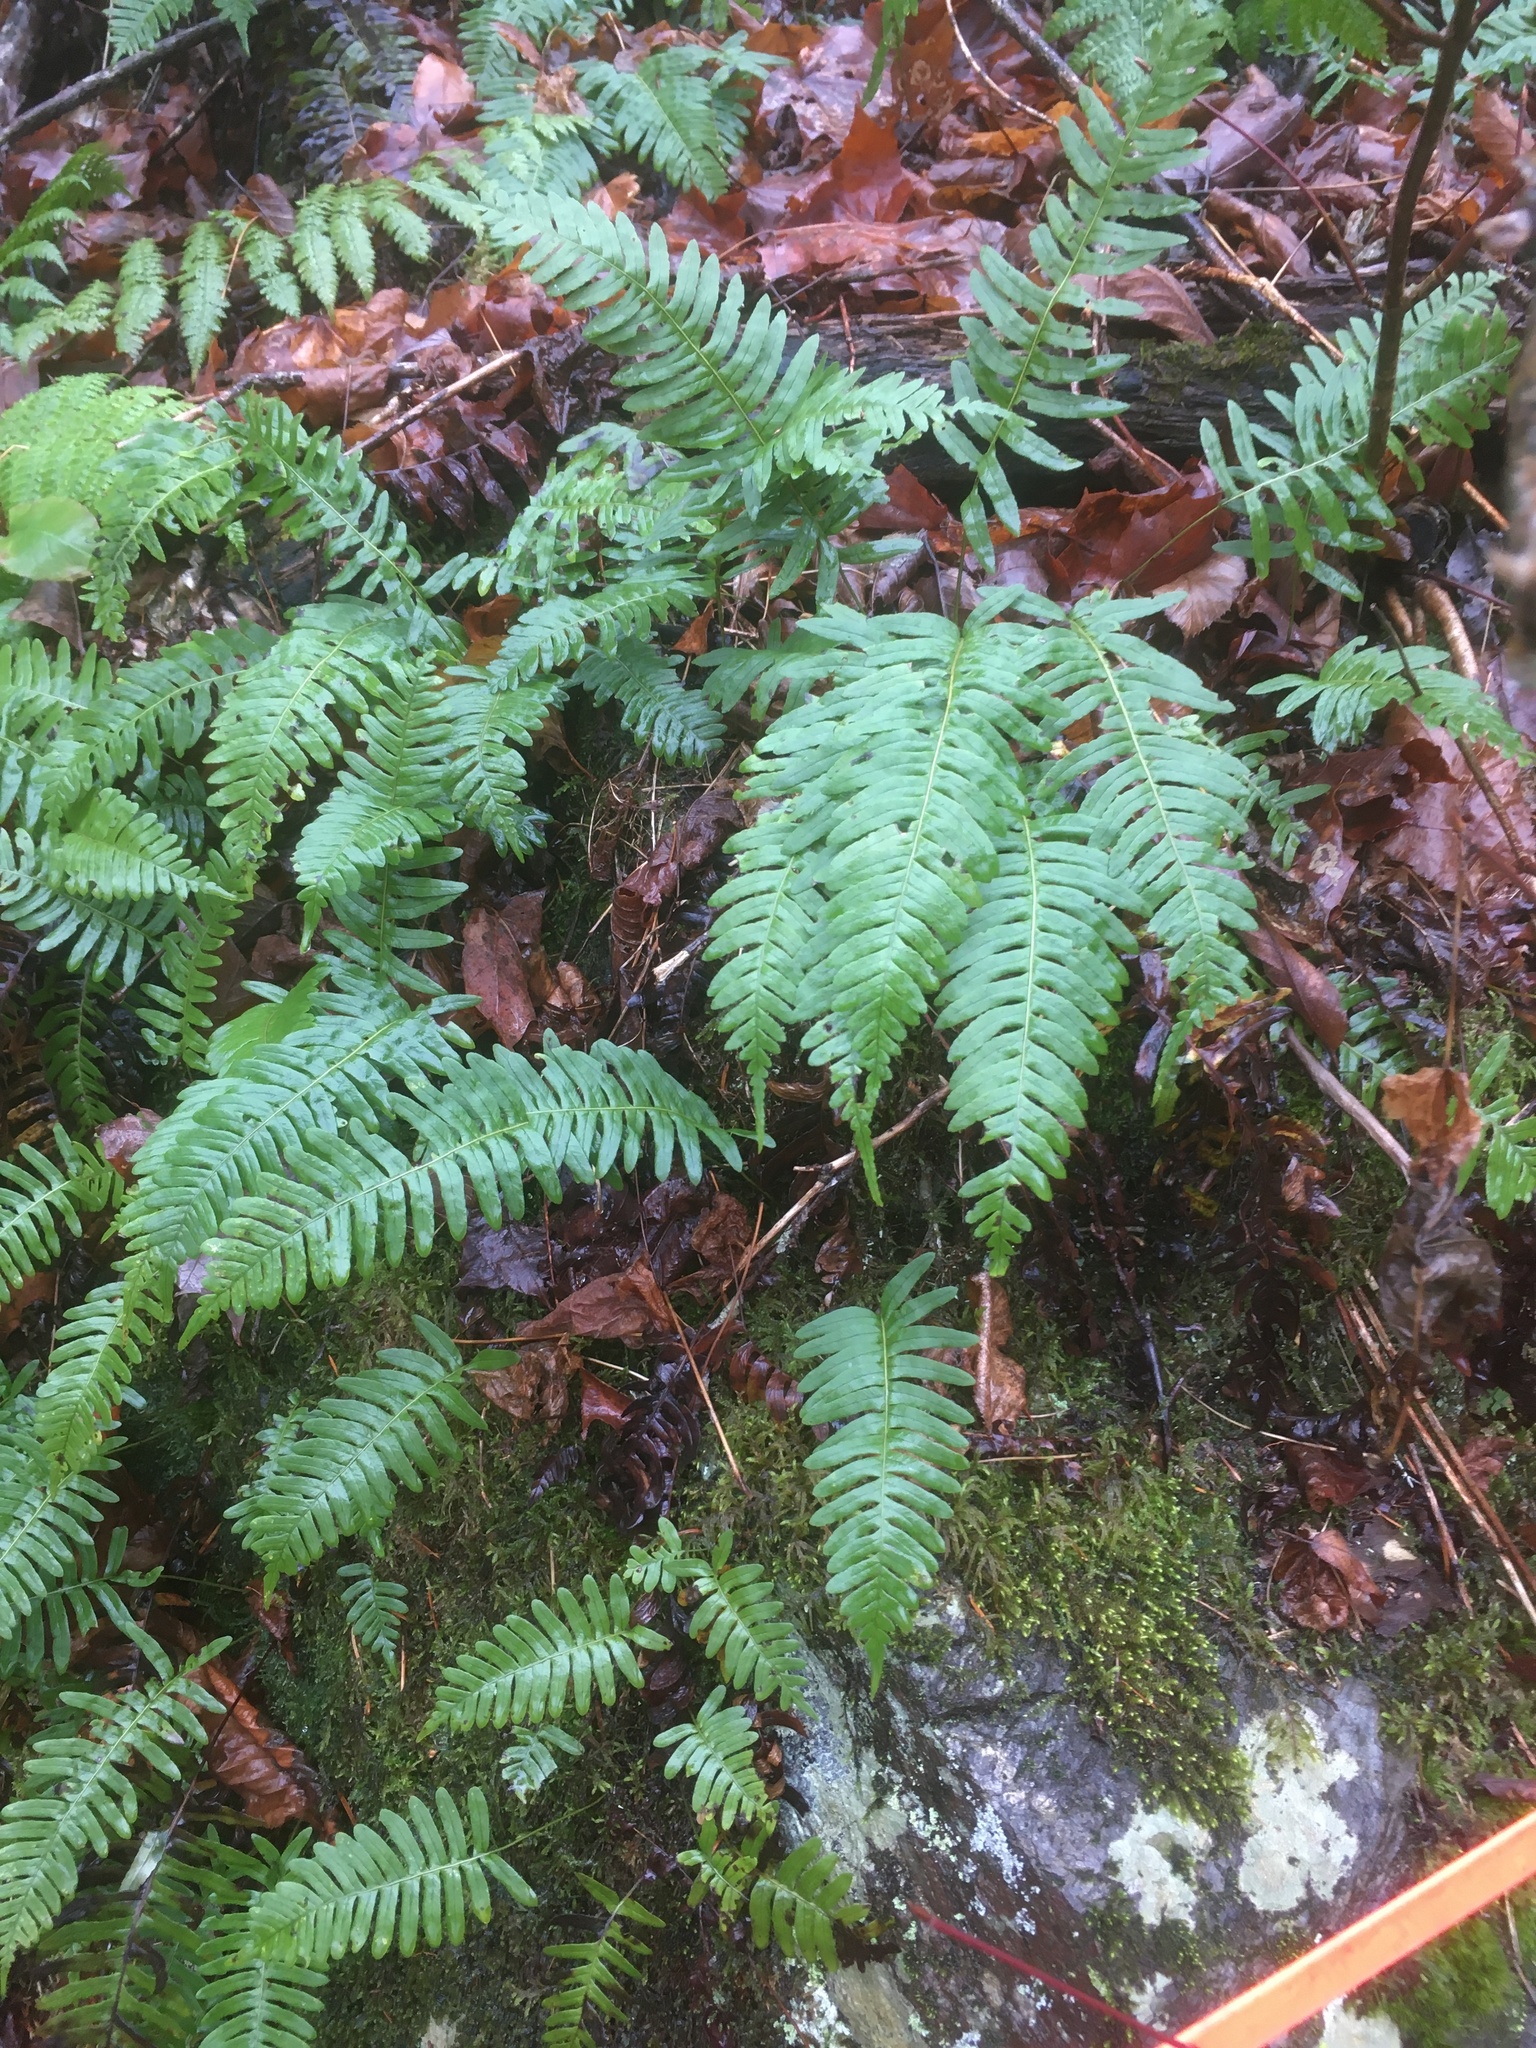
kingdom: Plantae
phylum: Tracheophyta
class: Polypodiopsida
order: Polypodiales
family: Polypodiaceae
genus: Polypodium
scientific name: Polypodium
